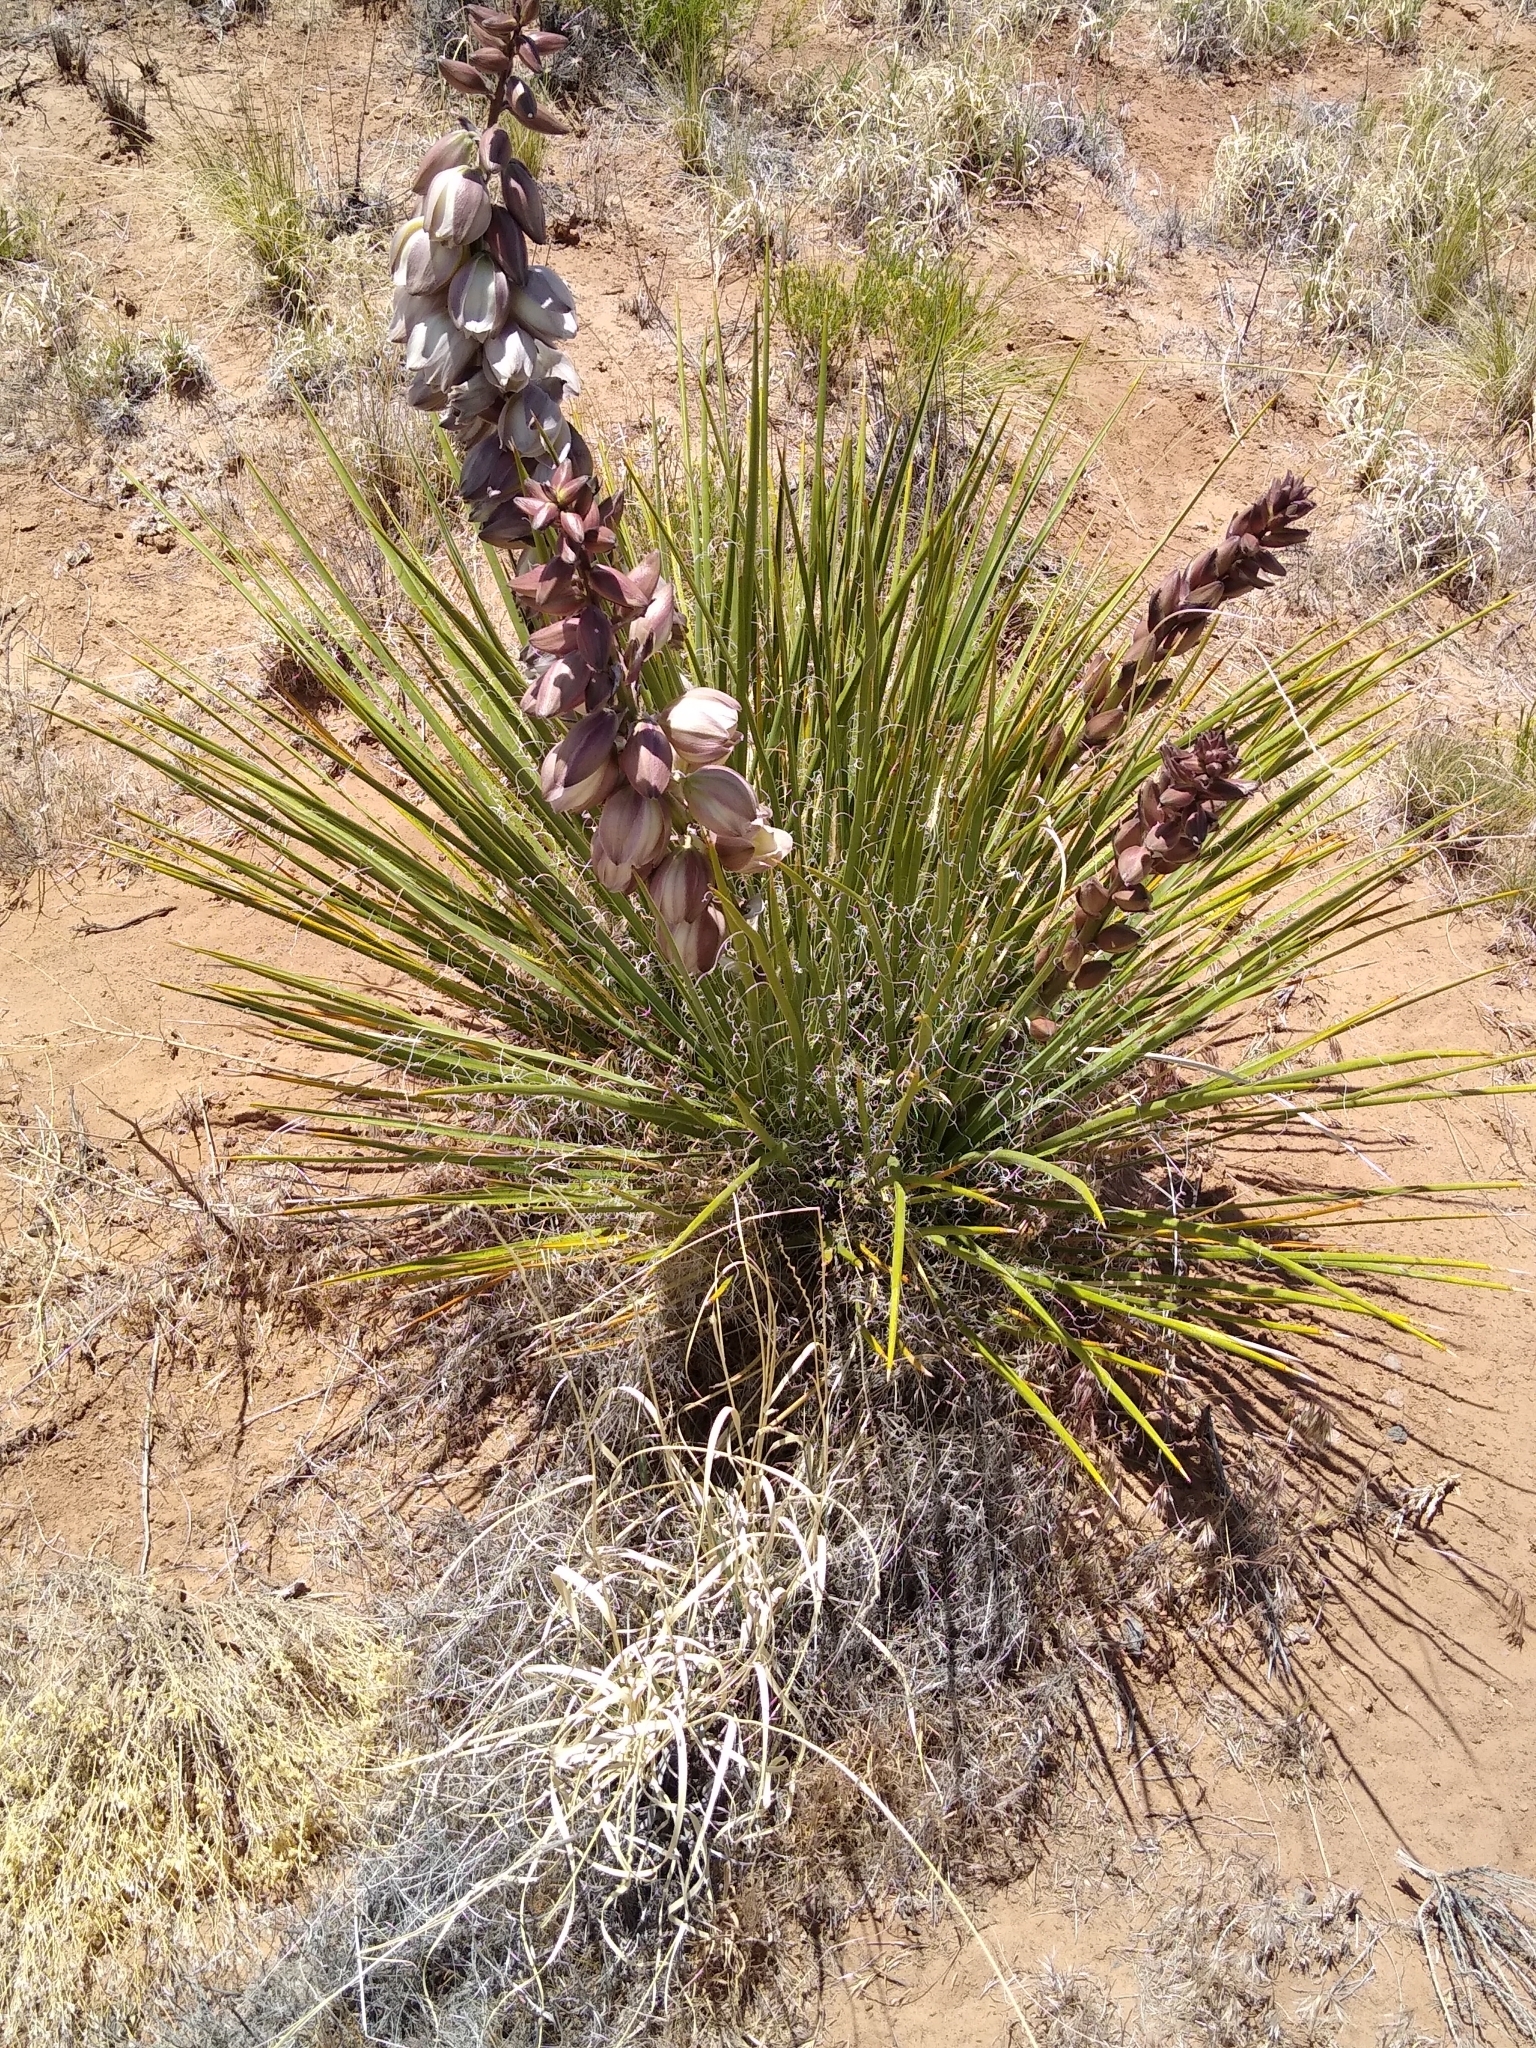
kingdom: Plantae
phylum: Tracheophyta
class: Liliopsida
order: Asparagales
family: Asparagaceae
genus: Yucca
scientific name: Yucca baileyi
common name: Alpine yucca
